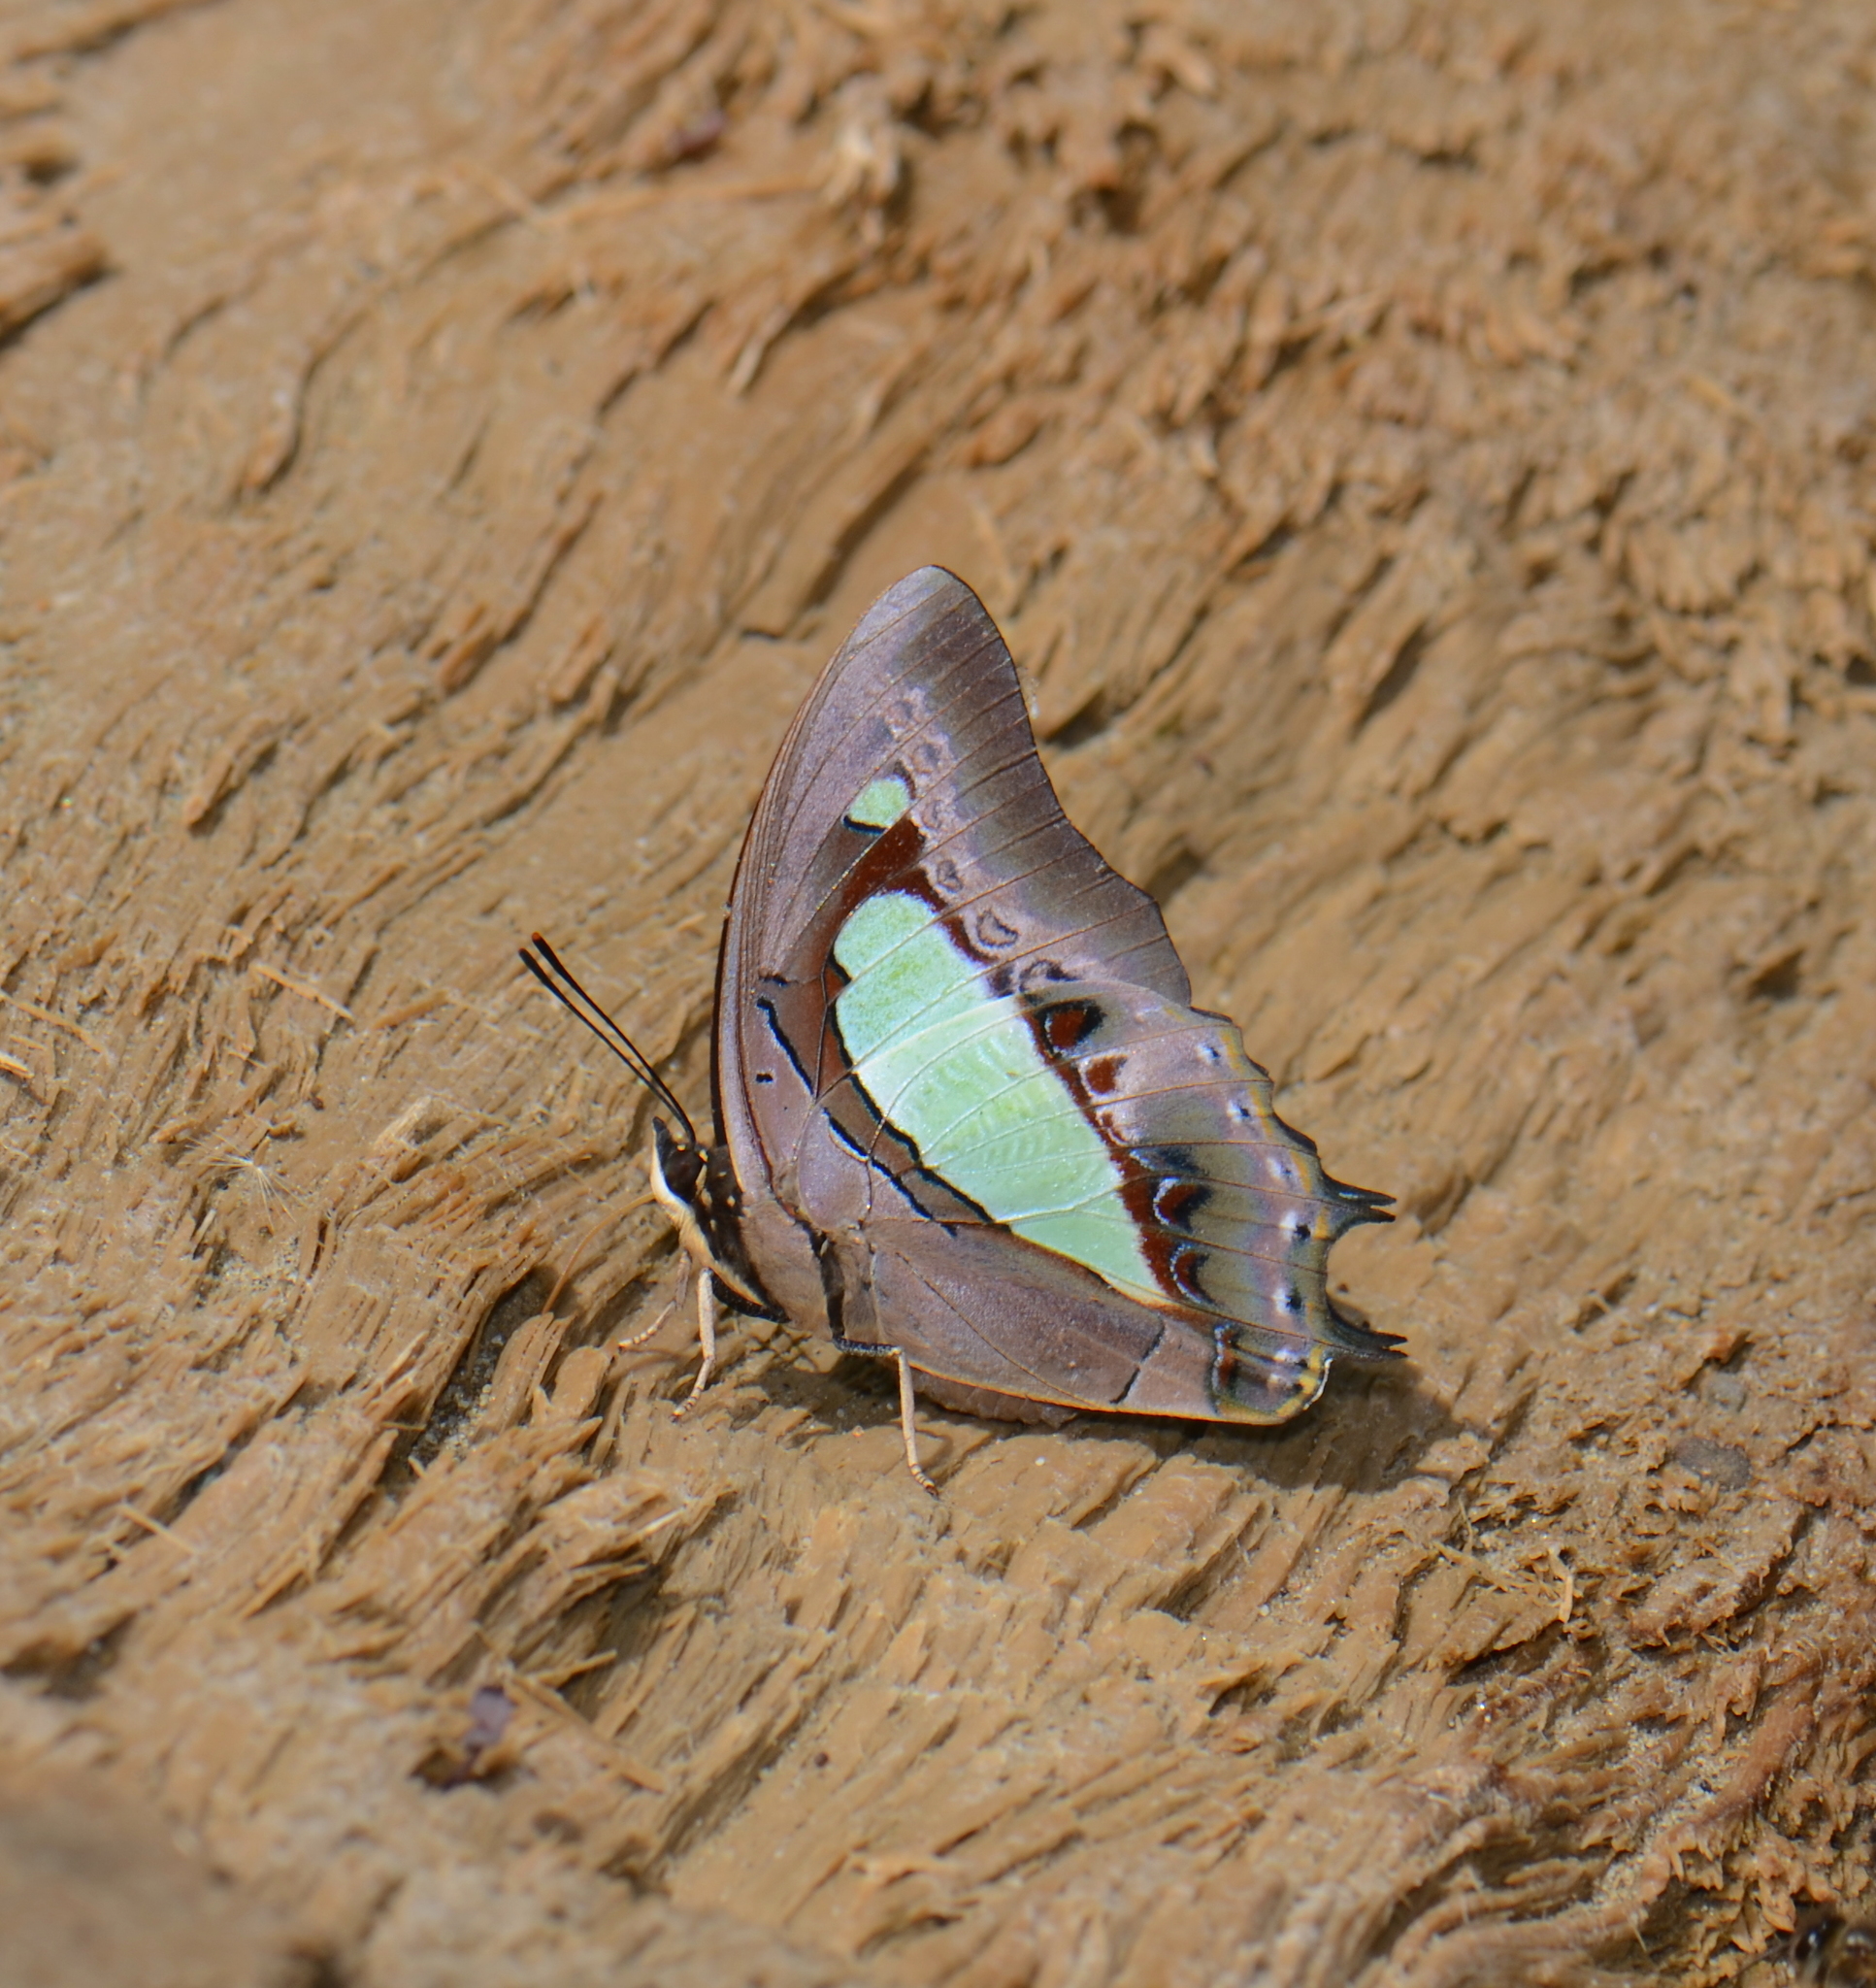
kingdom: Animalia
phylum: Arthropoda
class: Insecta
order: Lepidoptera
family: Nymphalidae
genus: Polyura
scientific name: Polyura athamas
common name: Common nawab
